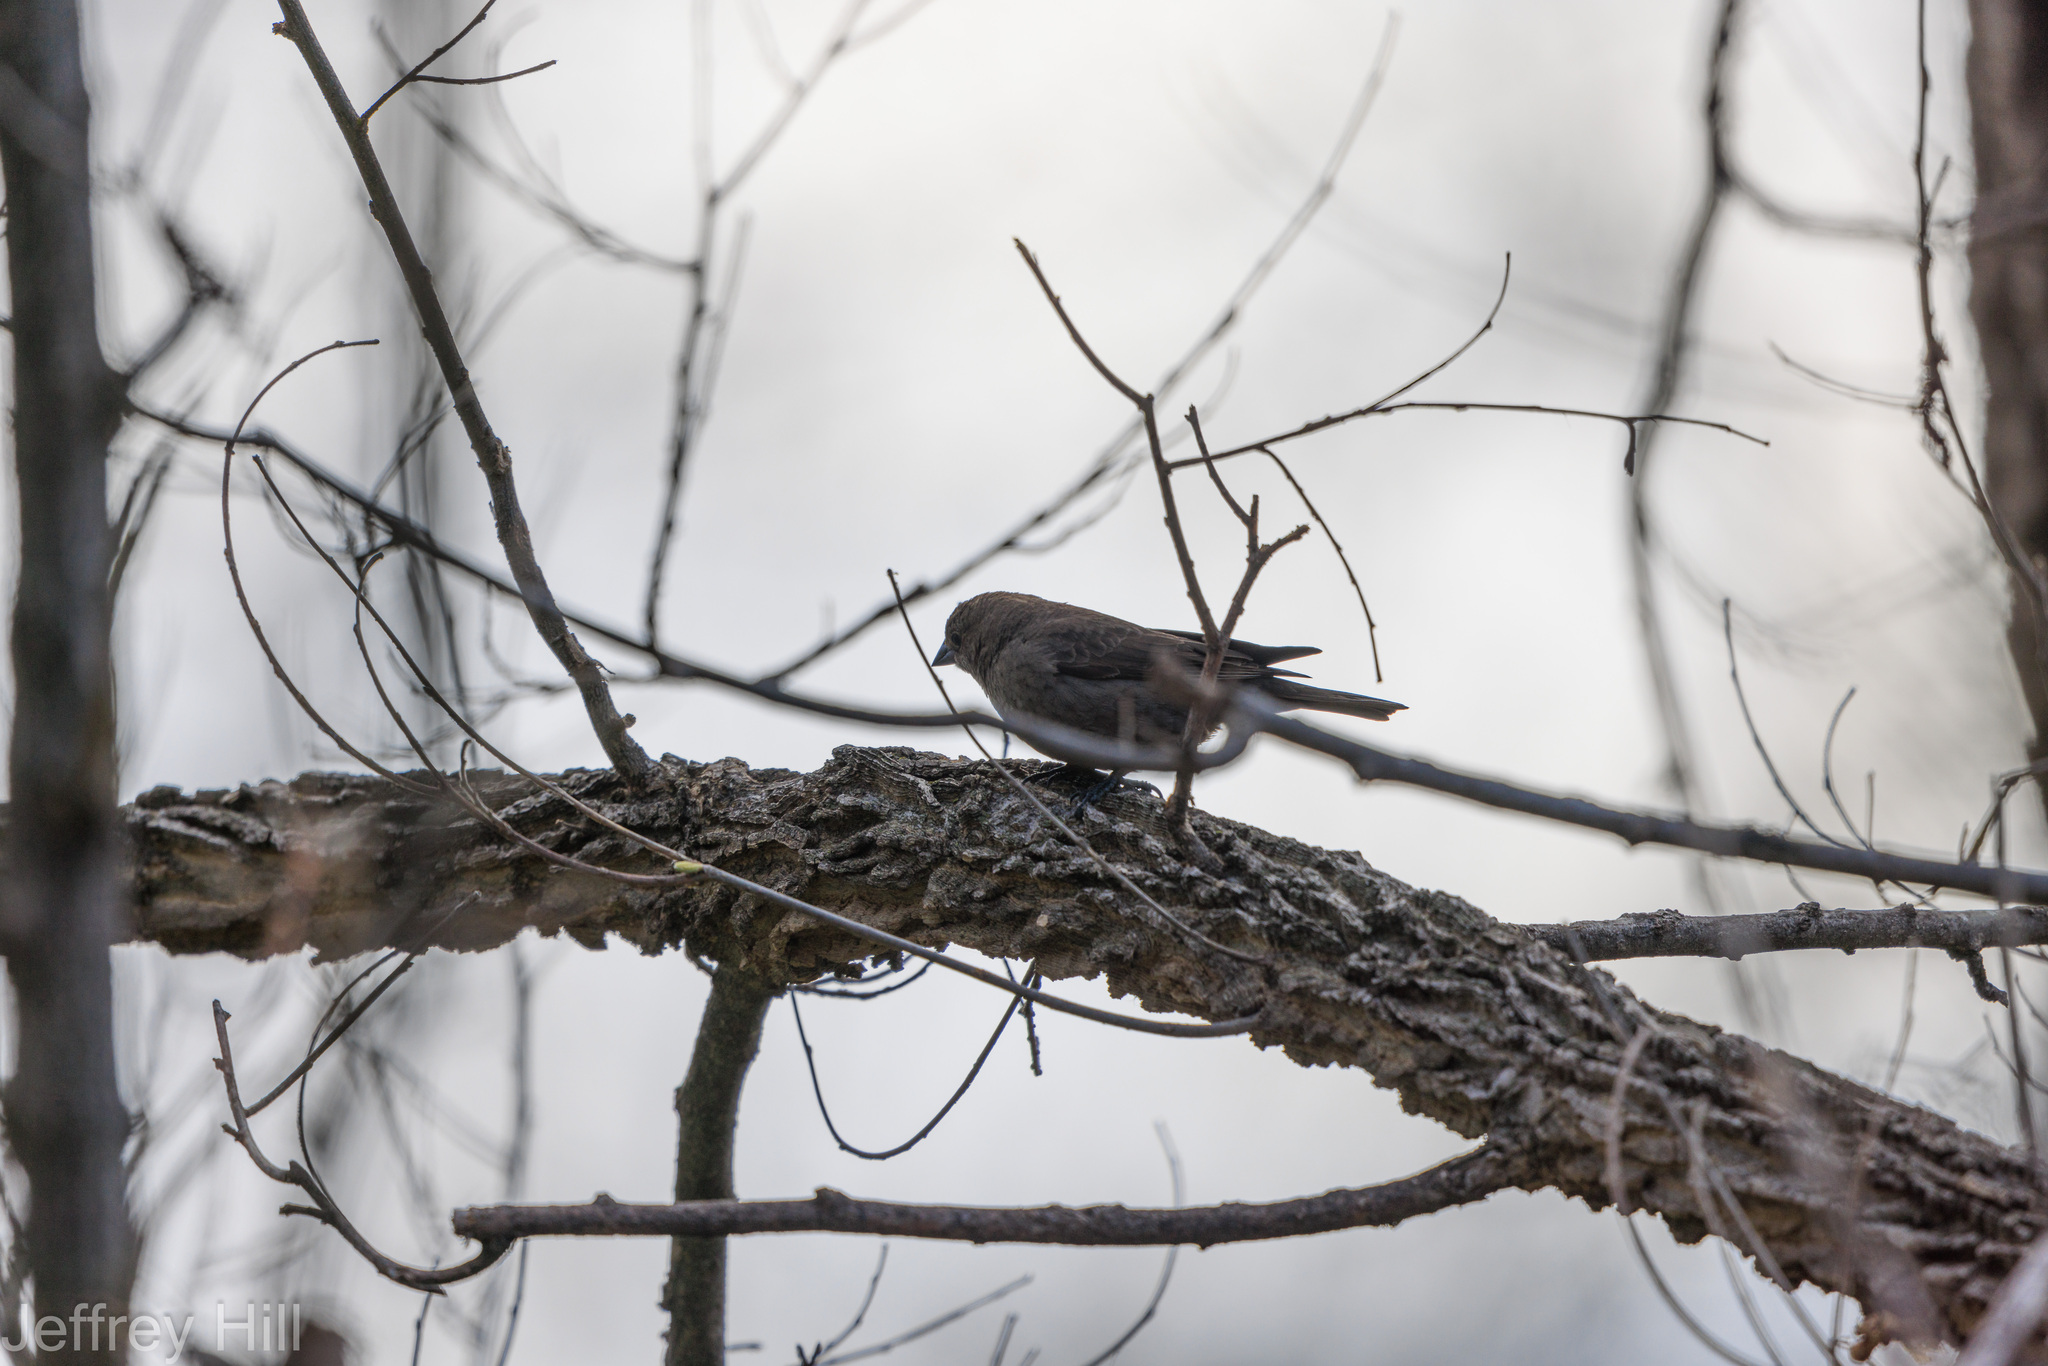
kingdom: Animalia
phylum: Chordata
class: Aves
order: Passeriformes
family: Icteridae
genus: Molothrus
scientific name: Molothrus ater
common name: Brown-headed cowbird
